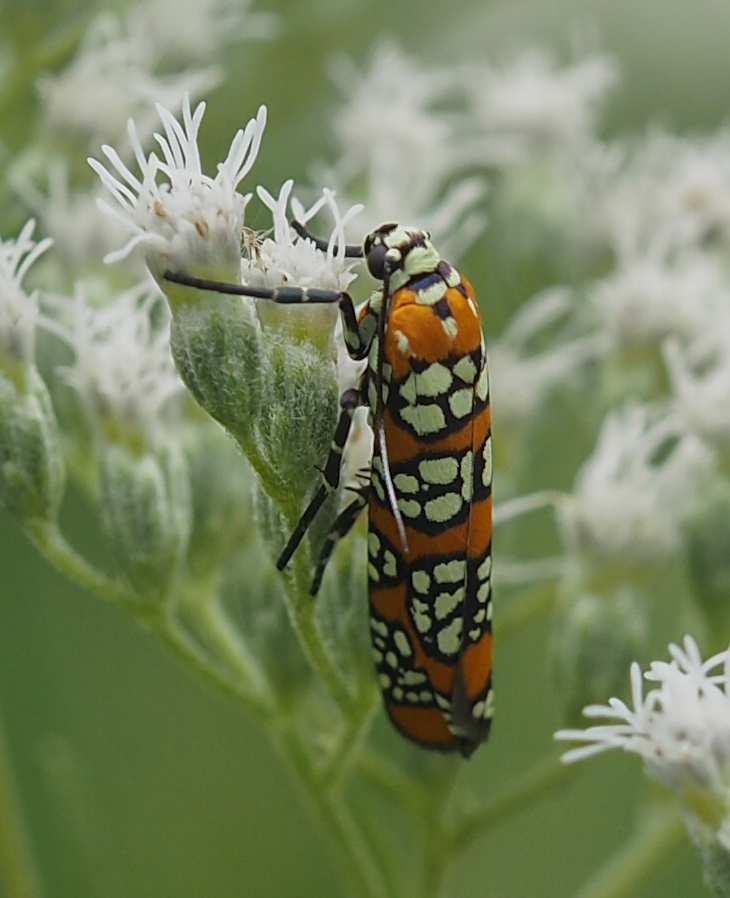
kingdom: Animalia
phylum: Arthropoda
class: Insecta
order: Lepidoptera
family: Attevidae
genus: Atteva
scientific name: Atteva punctella
